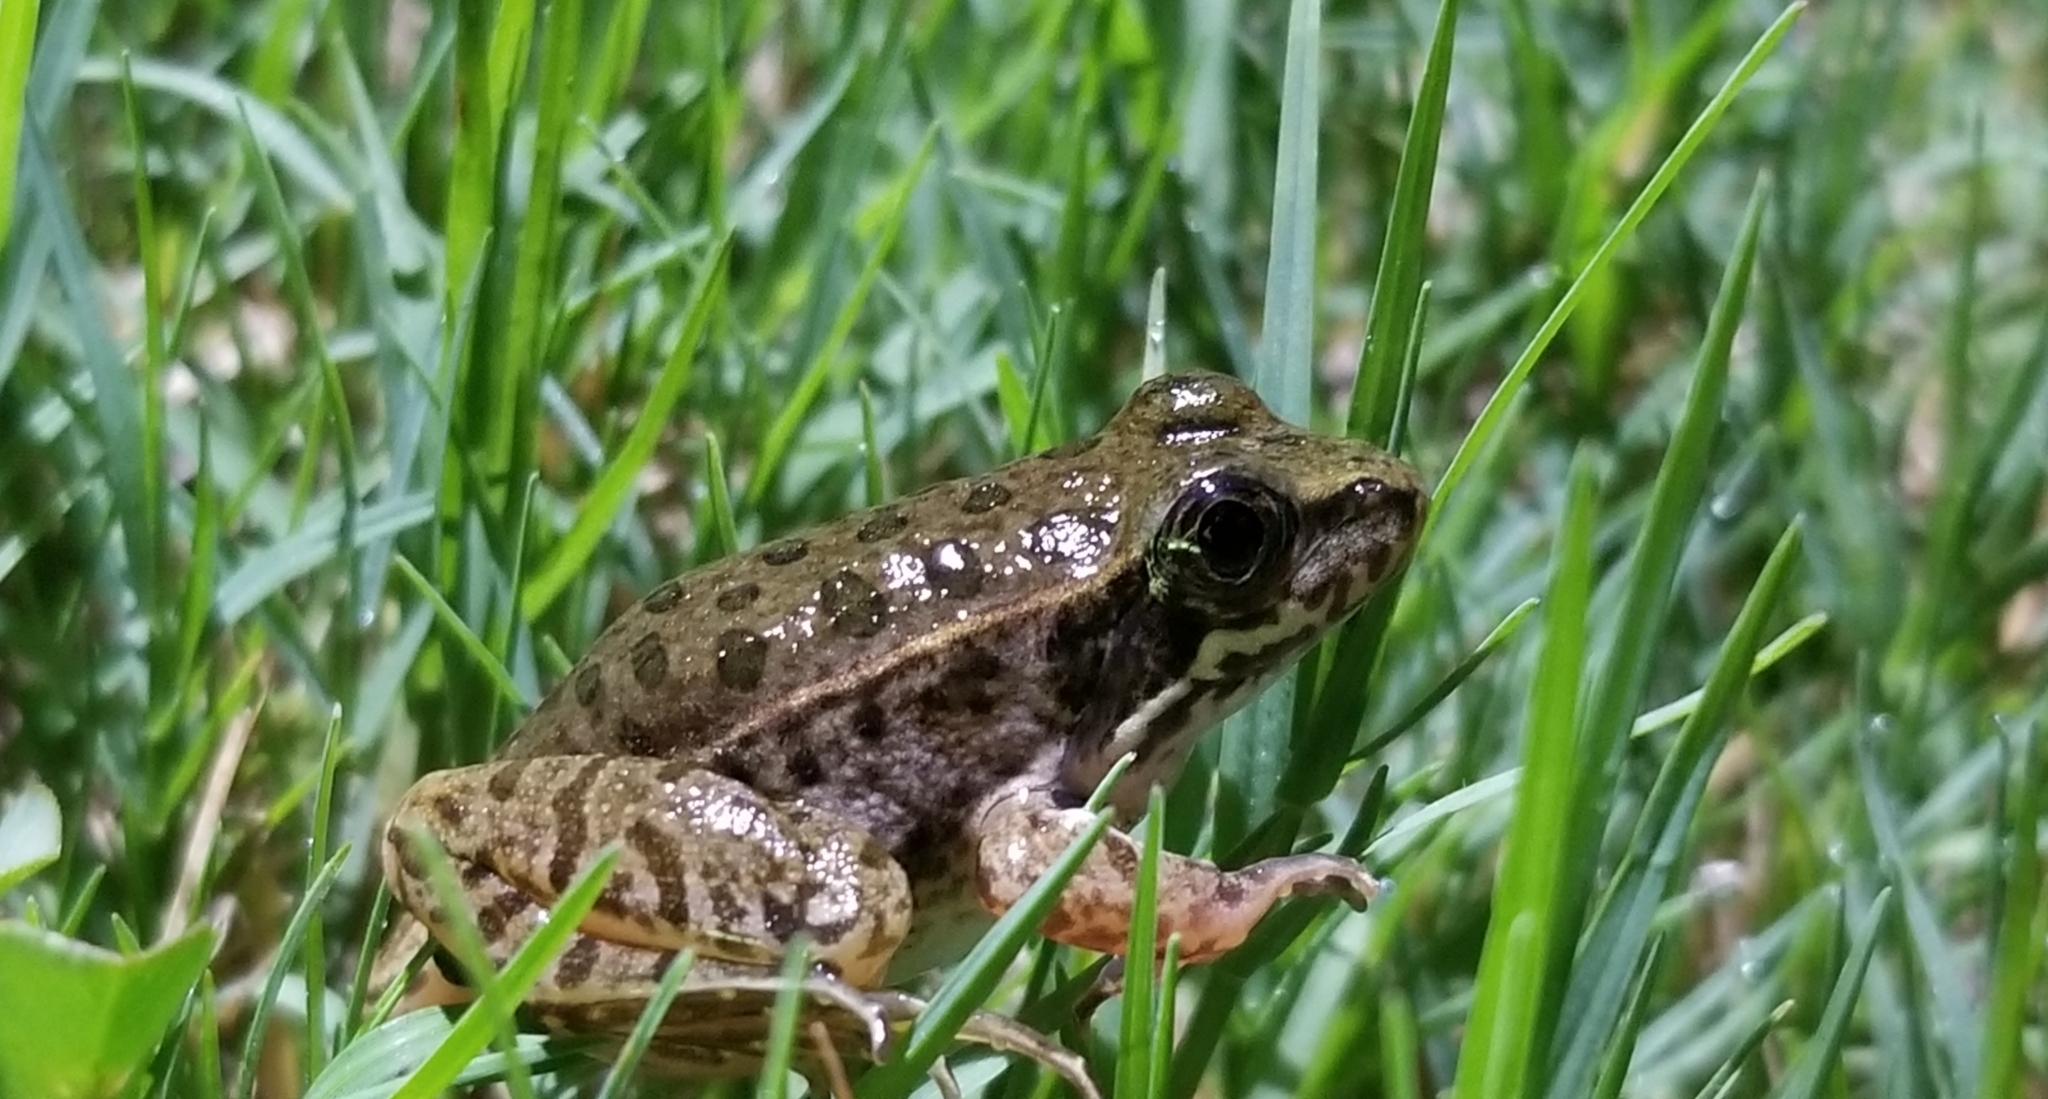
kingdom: Animalia
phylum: Chordata
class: Amphibia
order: Anura
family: Ranidae
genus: Lithobates
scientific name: Lithobates sphenocephalus
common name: Southern leopard frog
